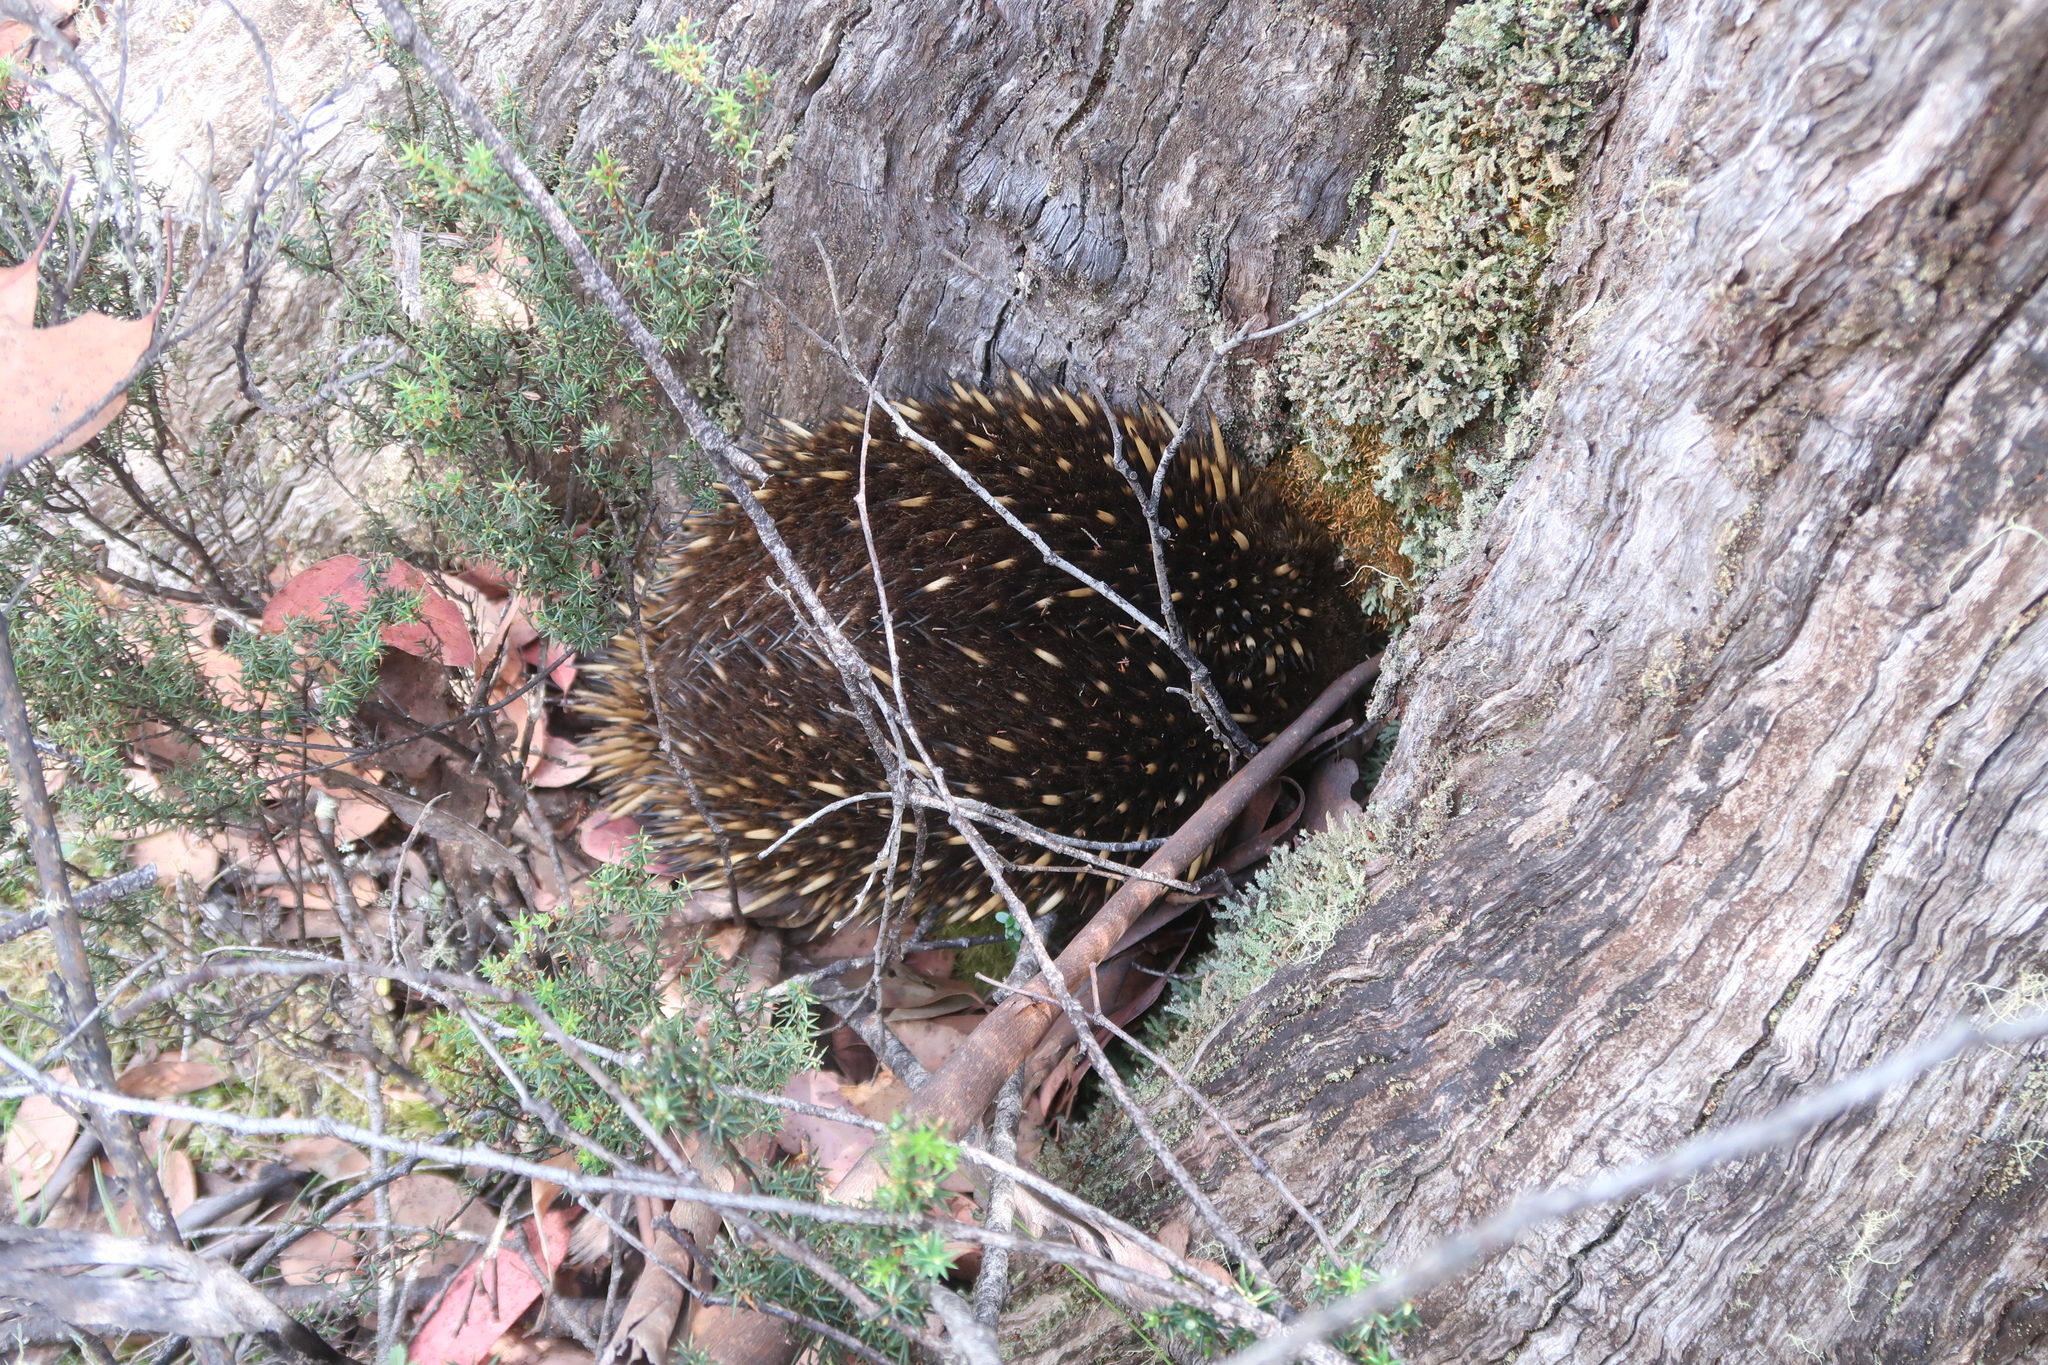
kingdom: Animalia
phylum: Chordata
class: Mammalia
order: Monotremata
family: Tachyglossidae
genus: Tachyglossus
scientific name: Tachyglossus aculeatus
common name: Short-beaked echidna
